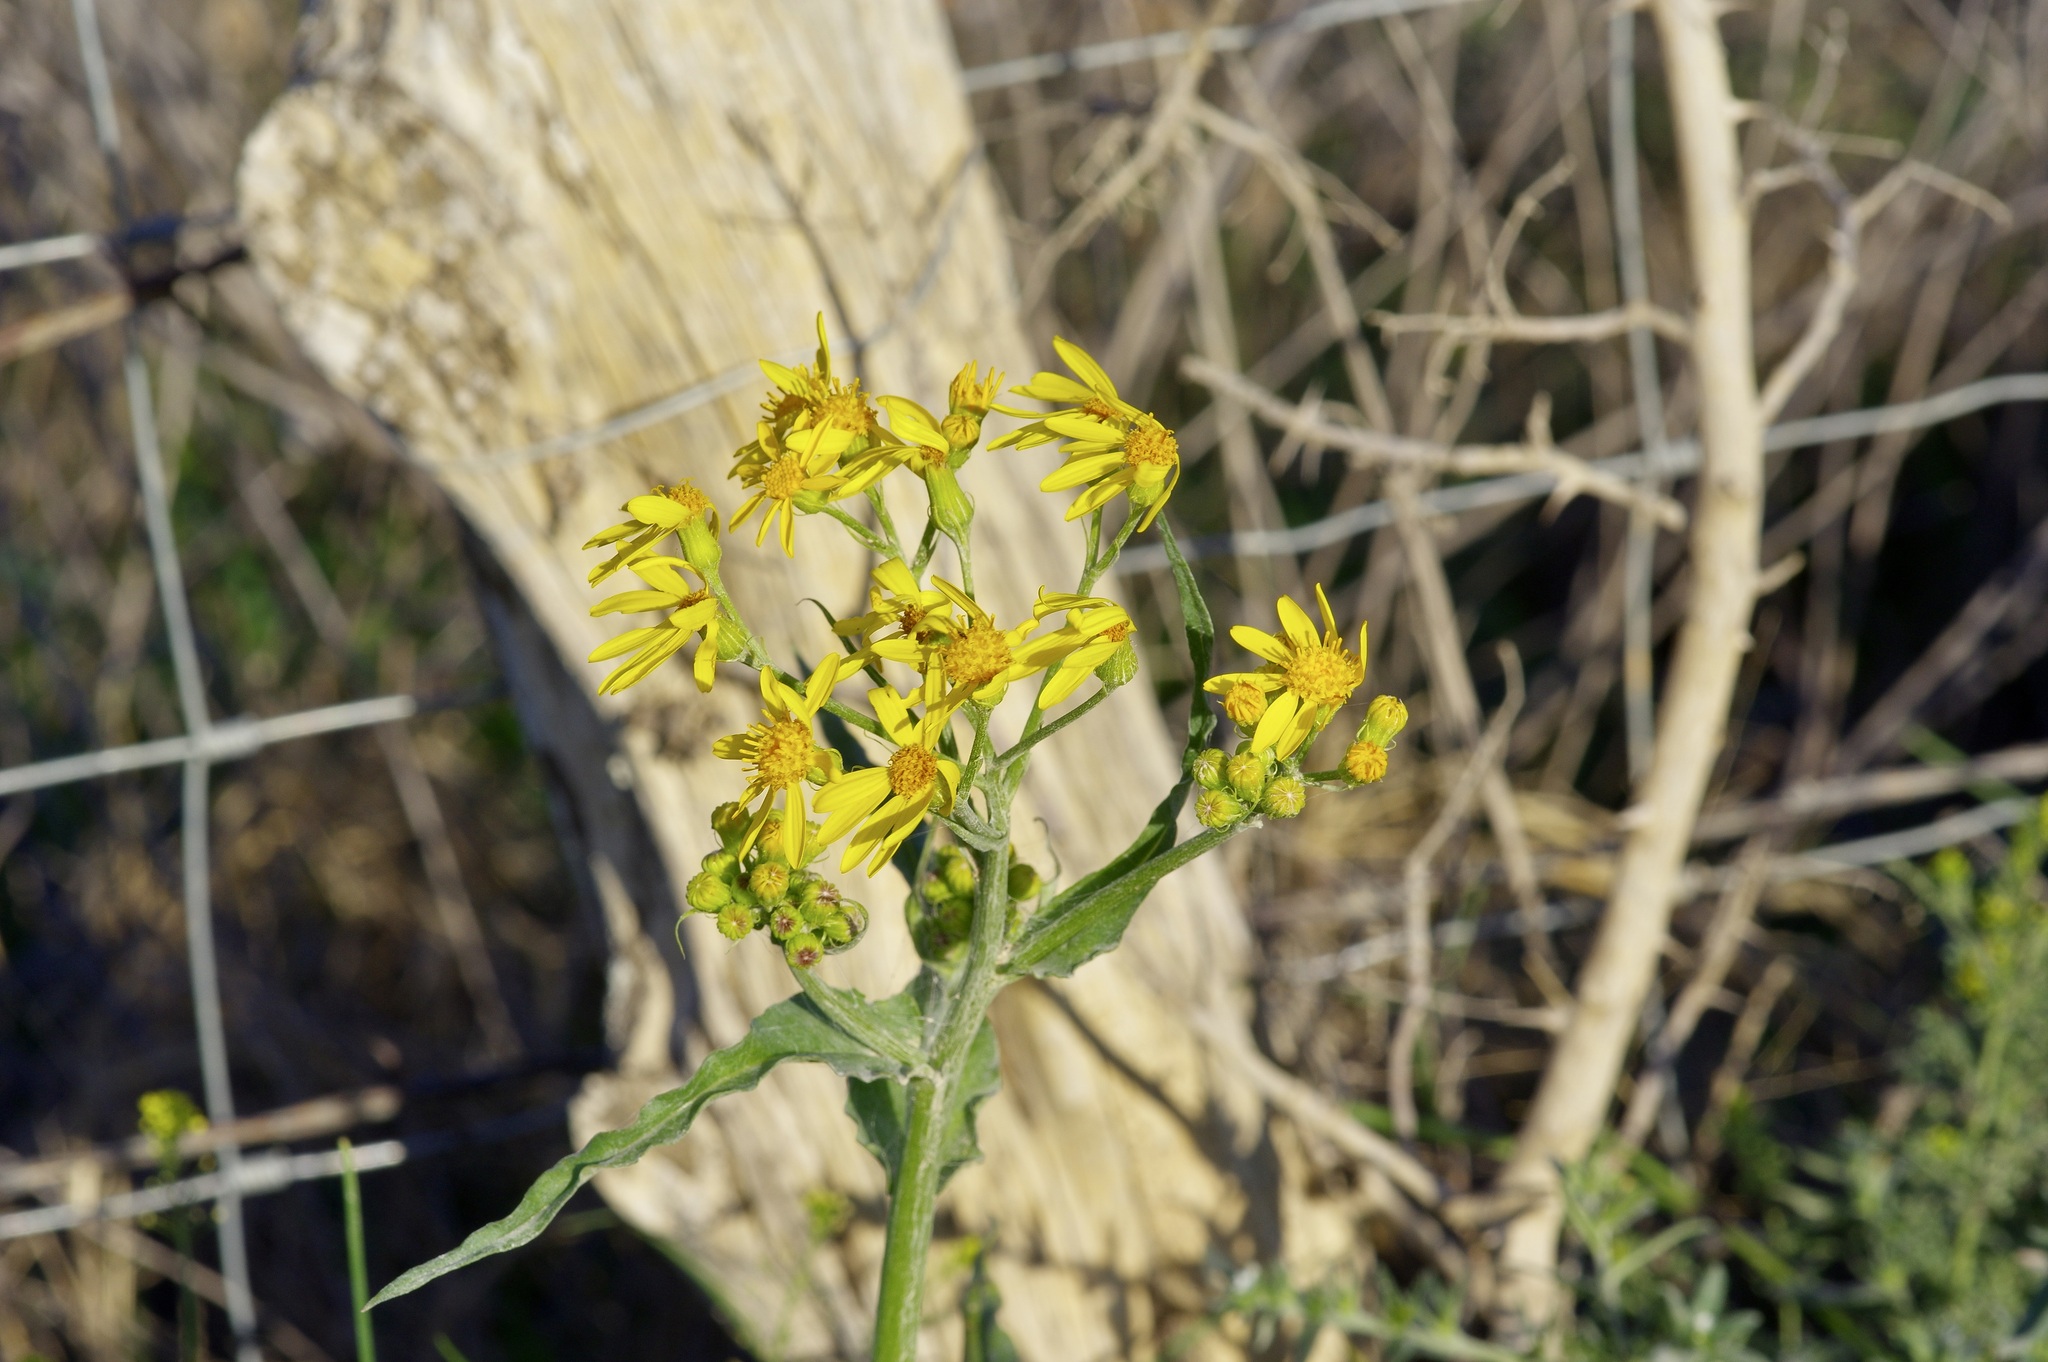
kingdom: Plantae
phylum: Tracheophyta
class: Magnoliopsida
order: Asterales
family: Asteraceae
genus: Senecio
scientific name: Senecio ampullaceus
